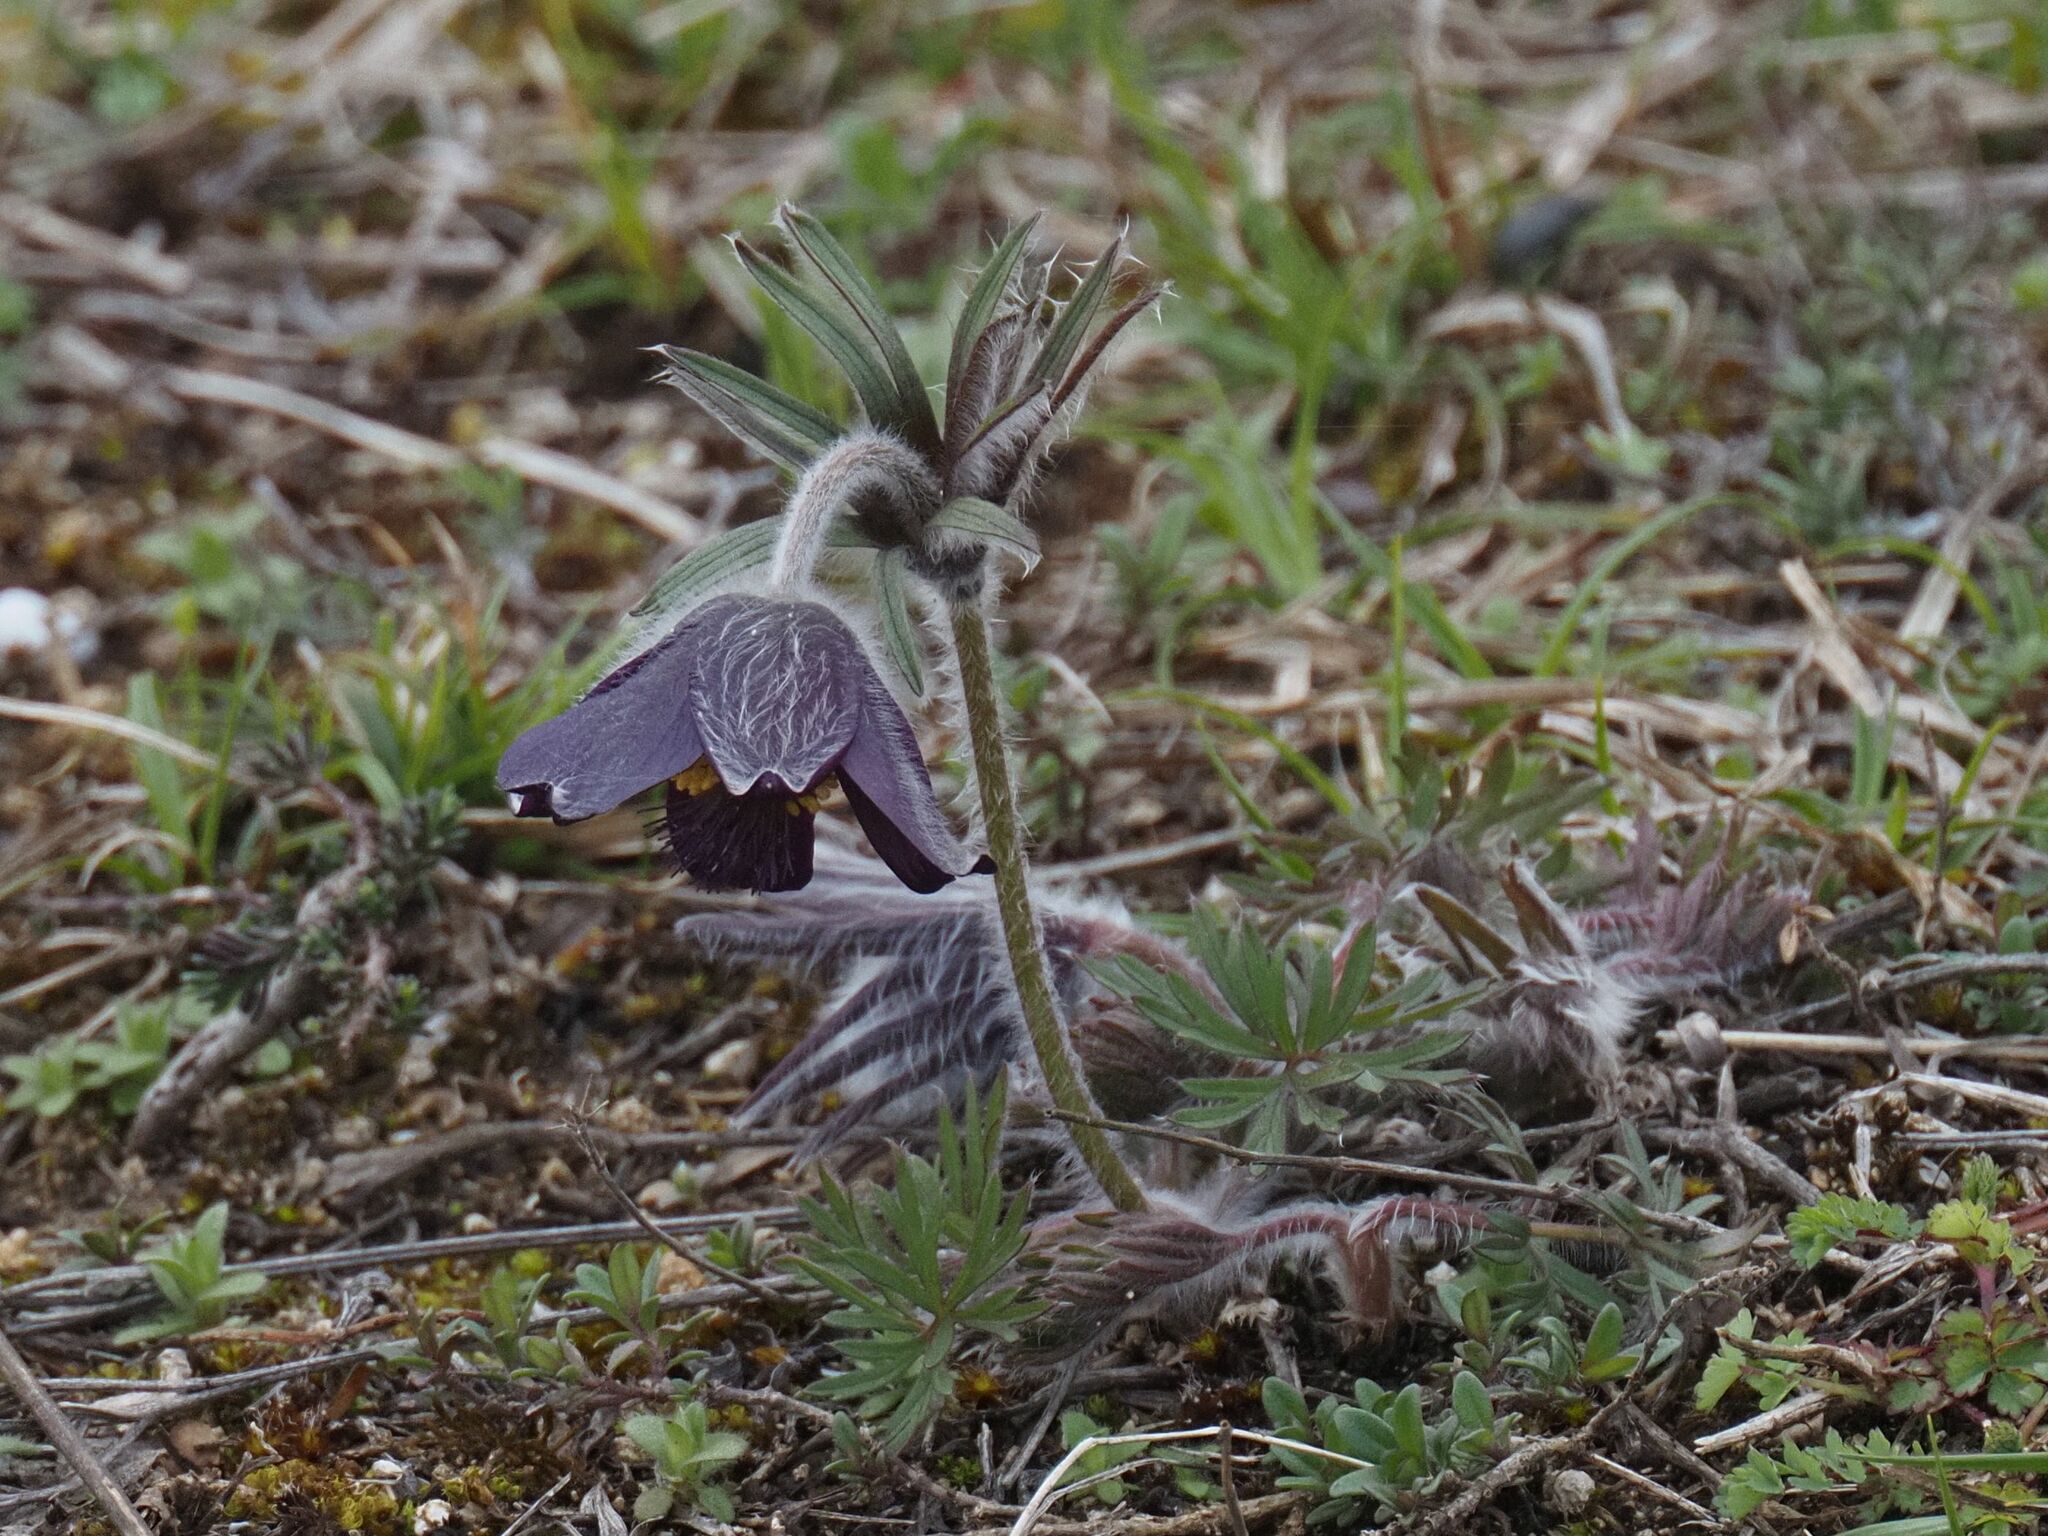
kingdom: Plantae
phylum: Tracheophyta
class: Magnoliopsida
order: Ranunculales
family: Ranunculaceae
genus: Pulsatilla
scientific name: Pulsatilla pratensis
